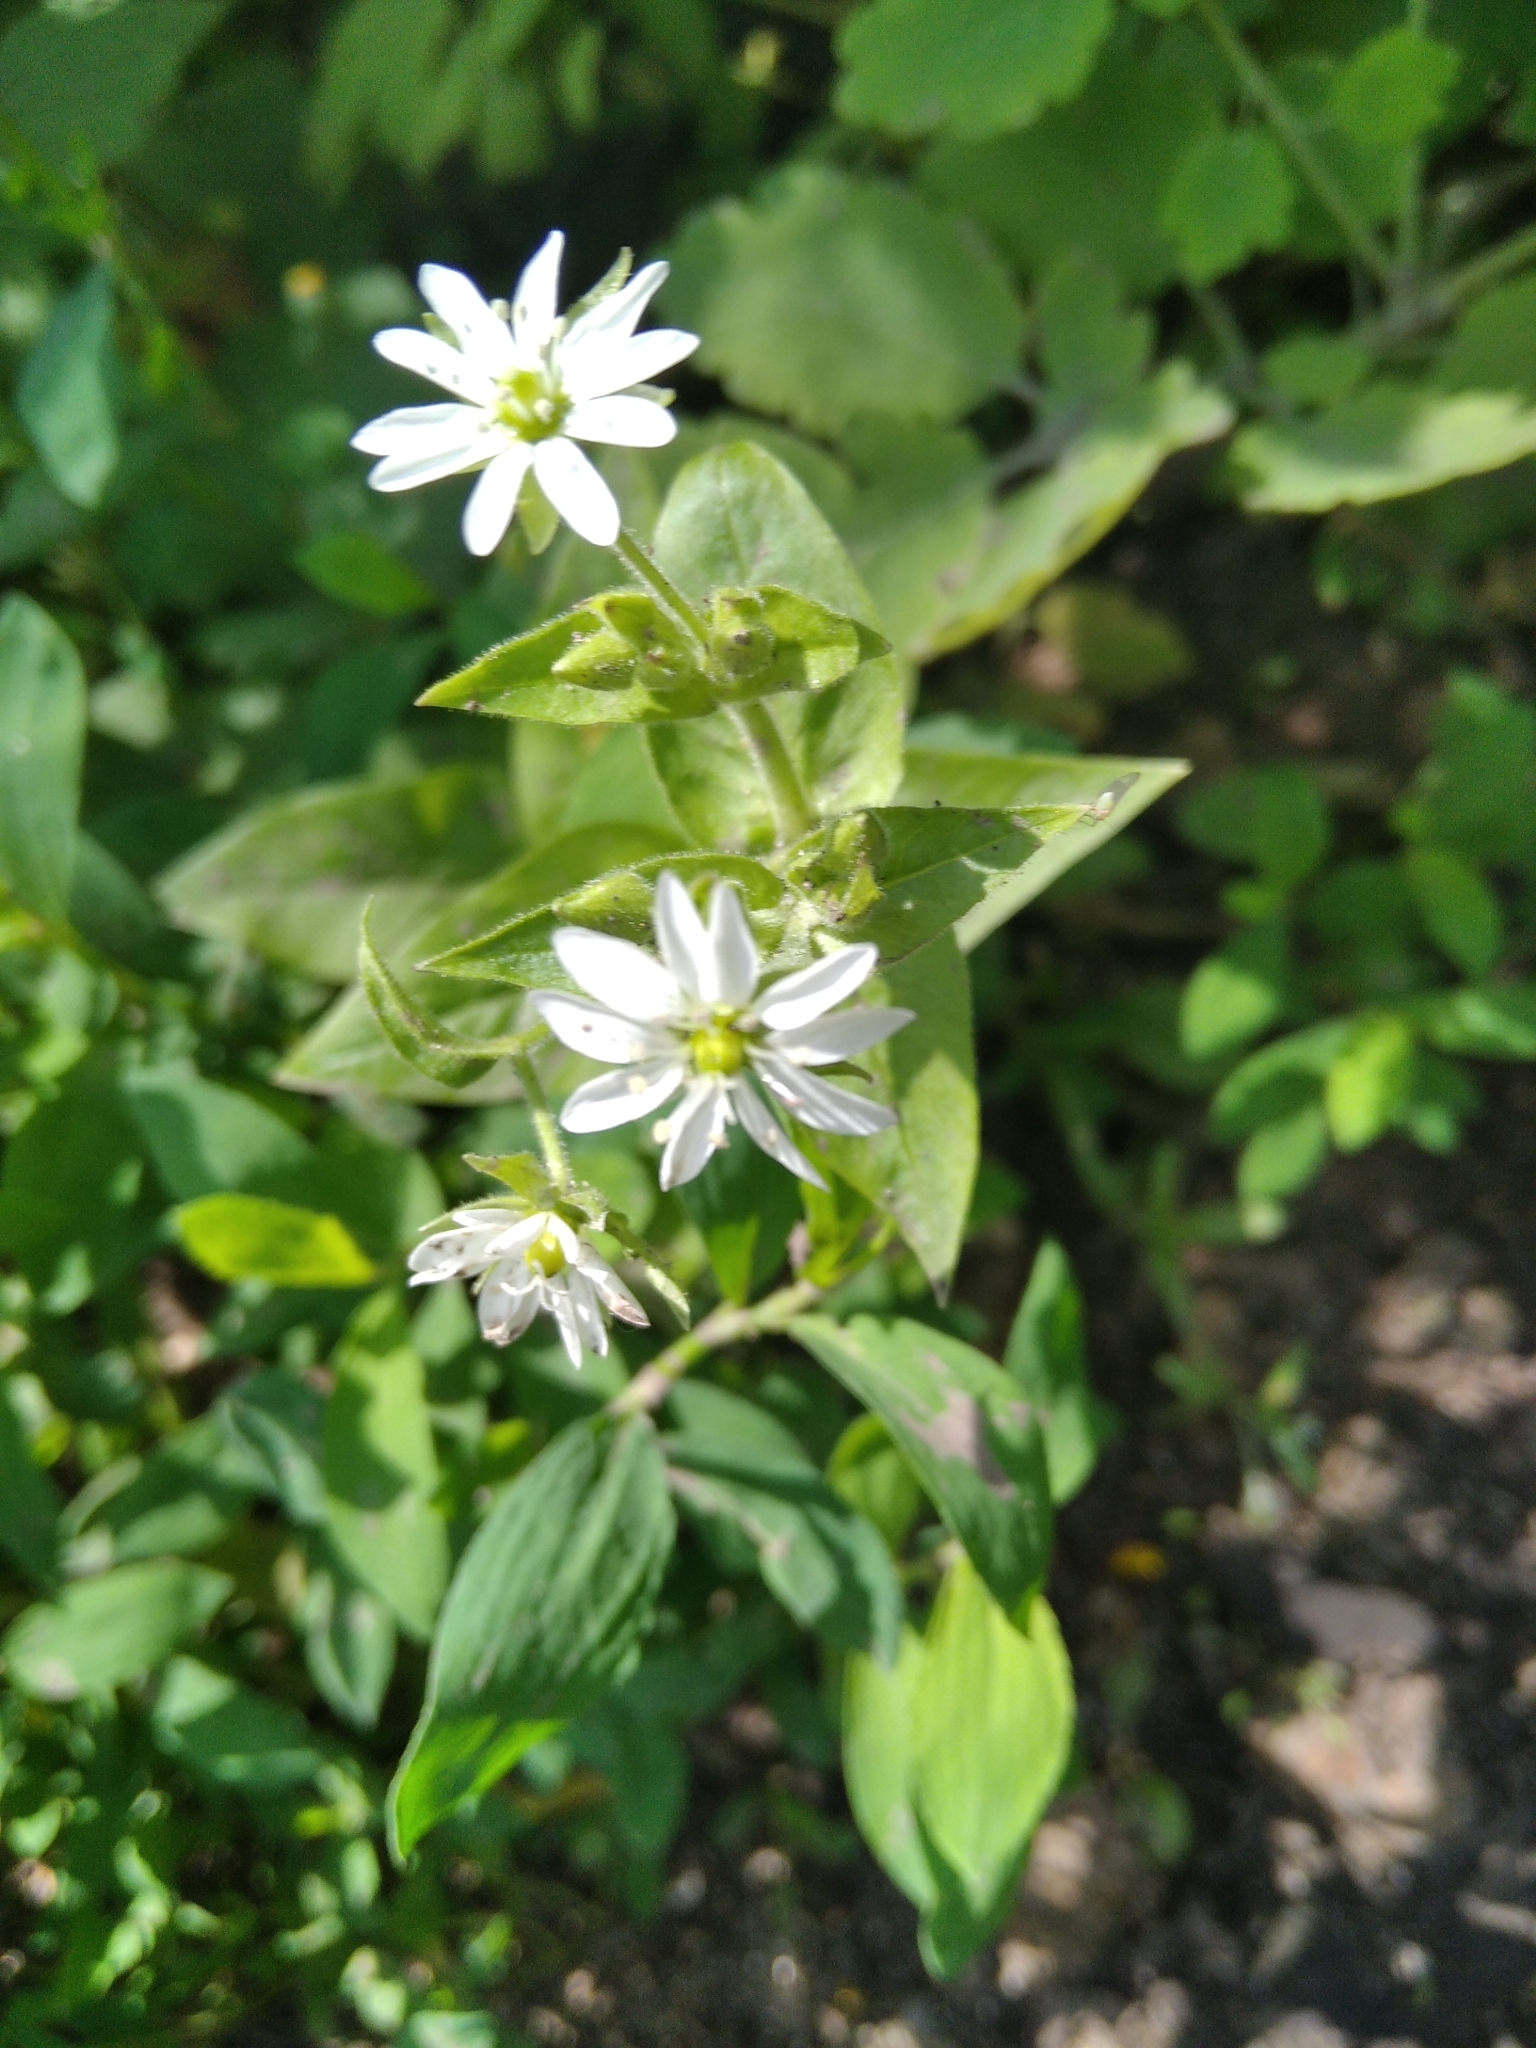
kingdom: Plantae
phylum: Tracheophyta
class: Magnoliopsida
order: Caryophyllales
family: Caryophyllaceae
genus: Stellaria
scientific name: Stellaria aquatica
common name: Water chickweed
